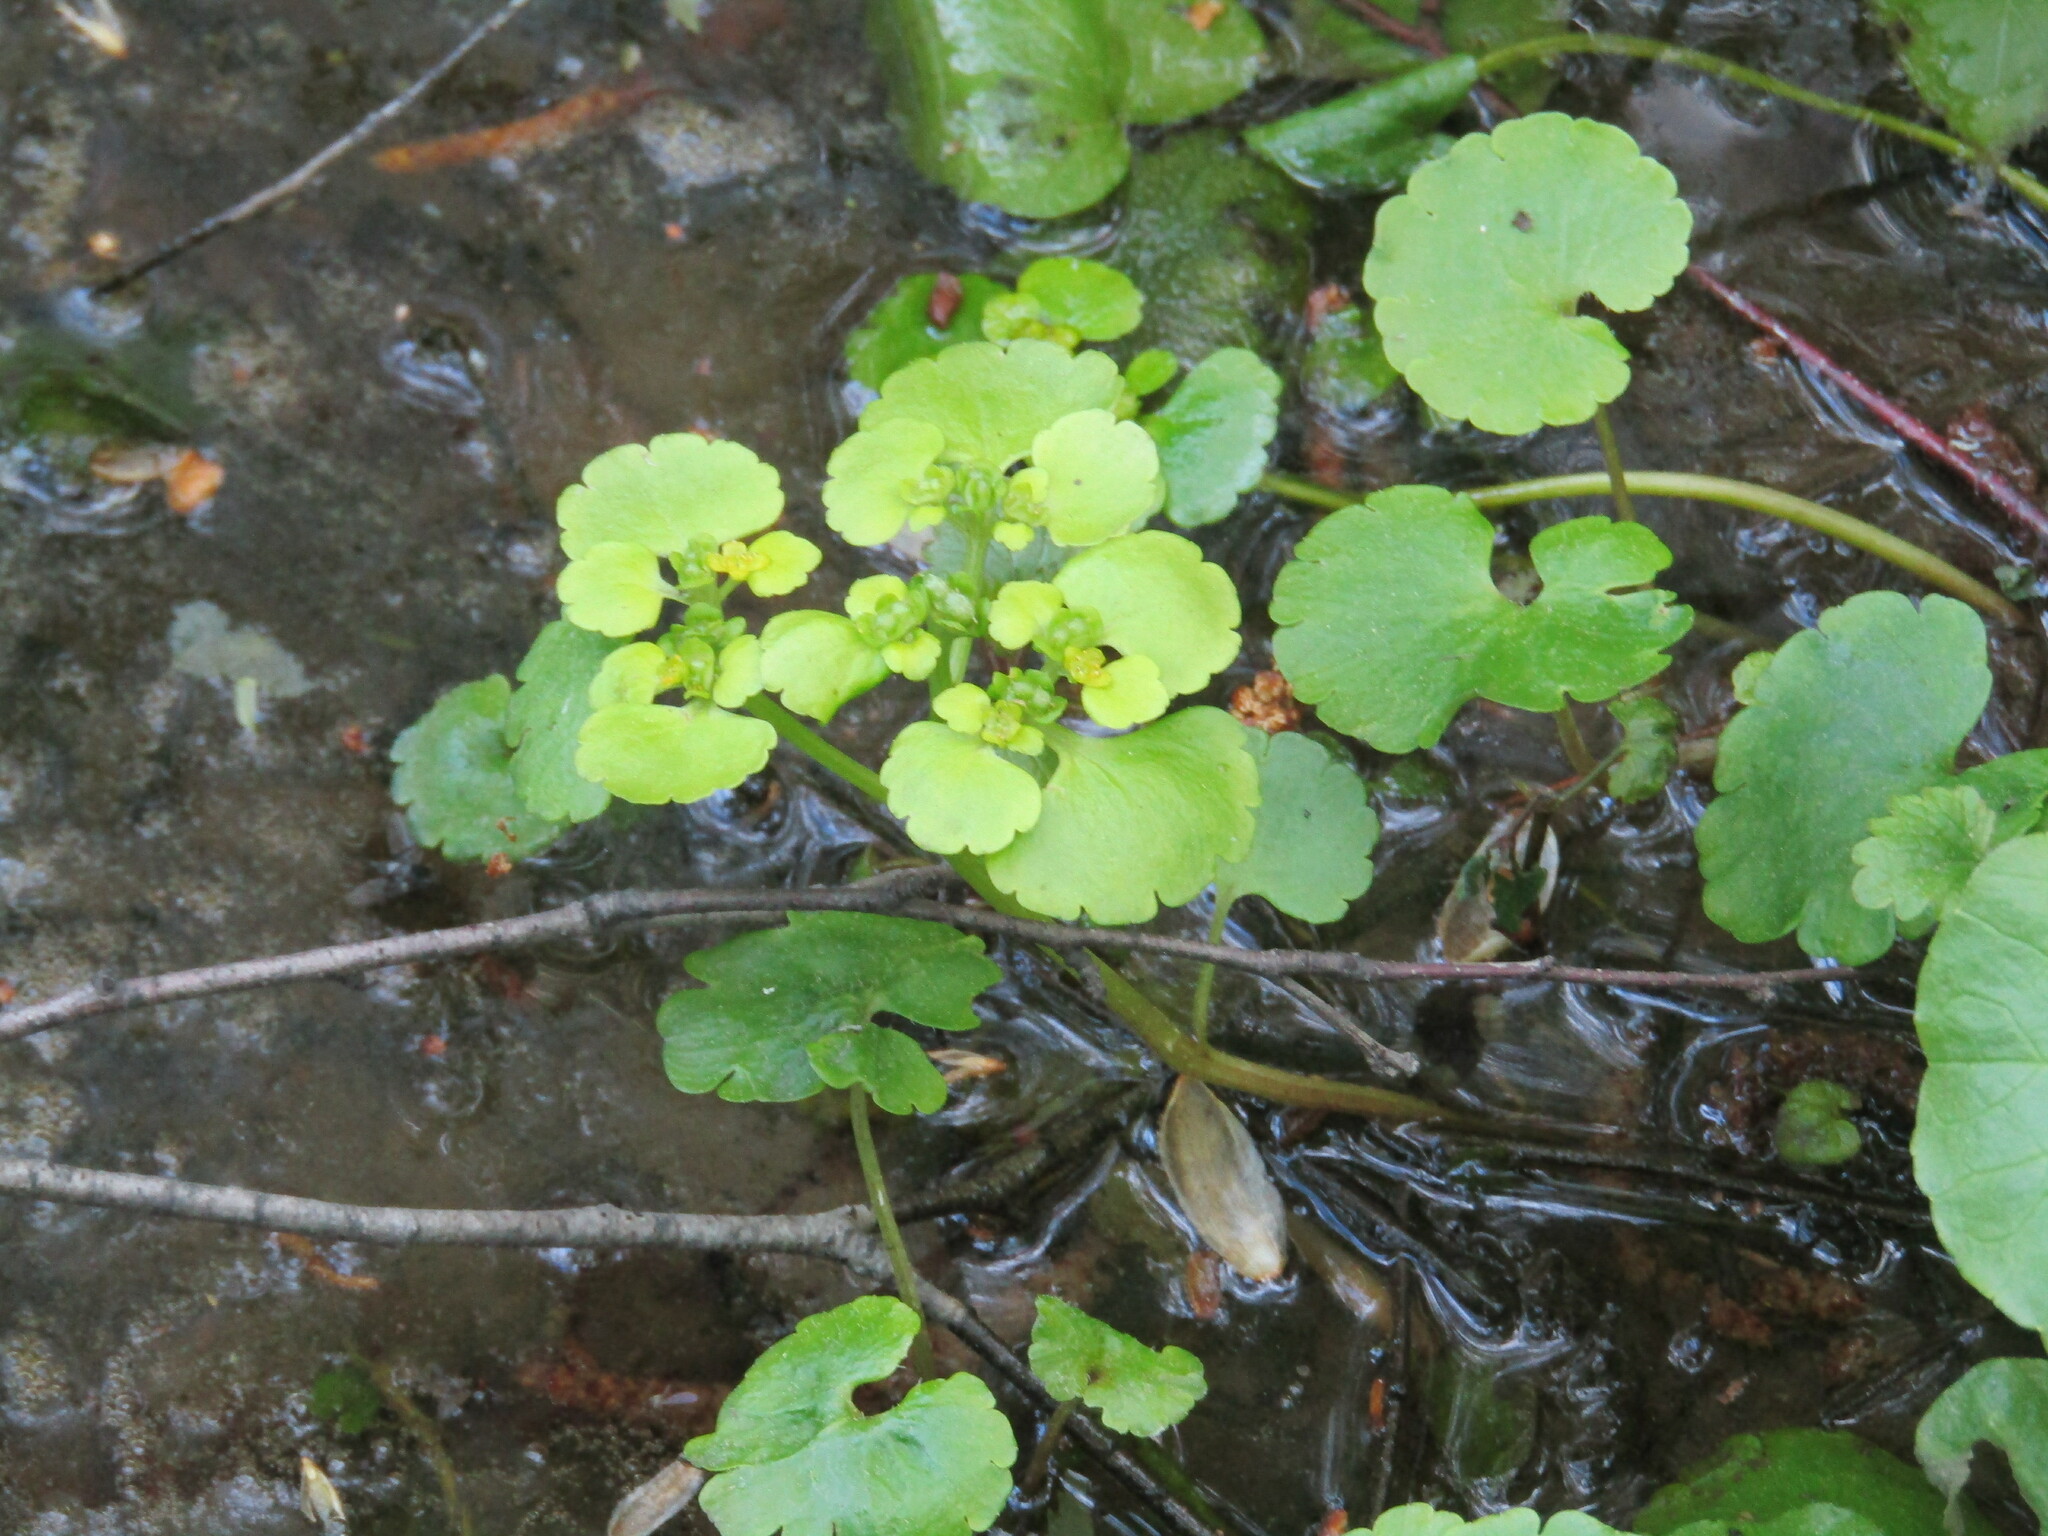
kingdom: Plantae
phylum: Tracheophyta
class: Magnoliopsida
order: Saxifragales
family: Saxifragaceae
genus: Chrysosplenium
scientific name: Chrysosplenium alternifolium
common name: Alternate-leaved golden-saxifrage
